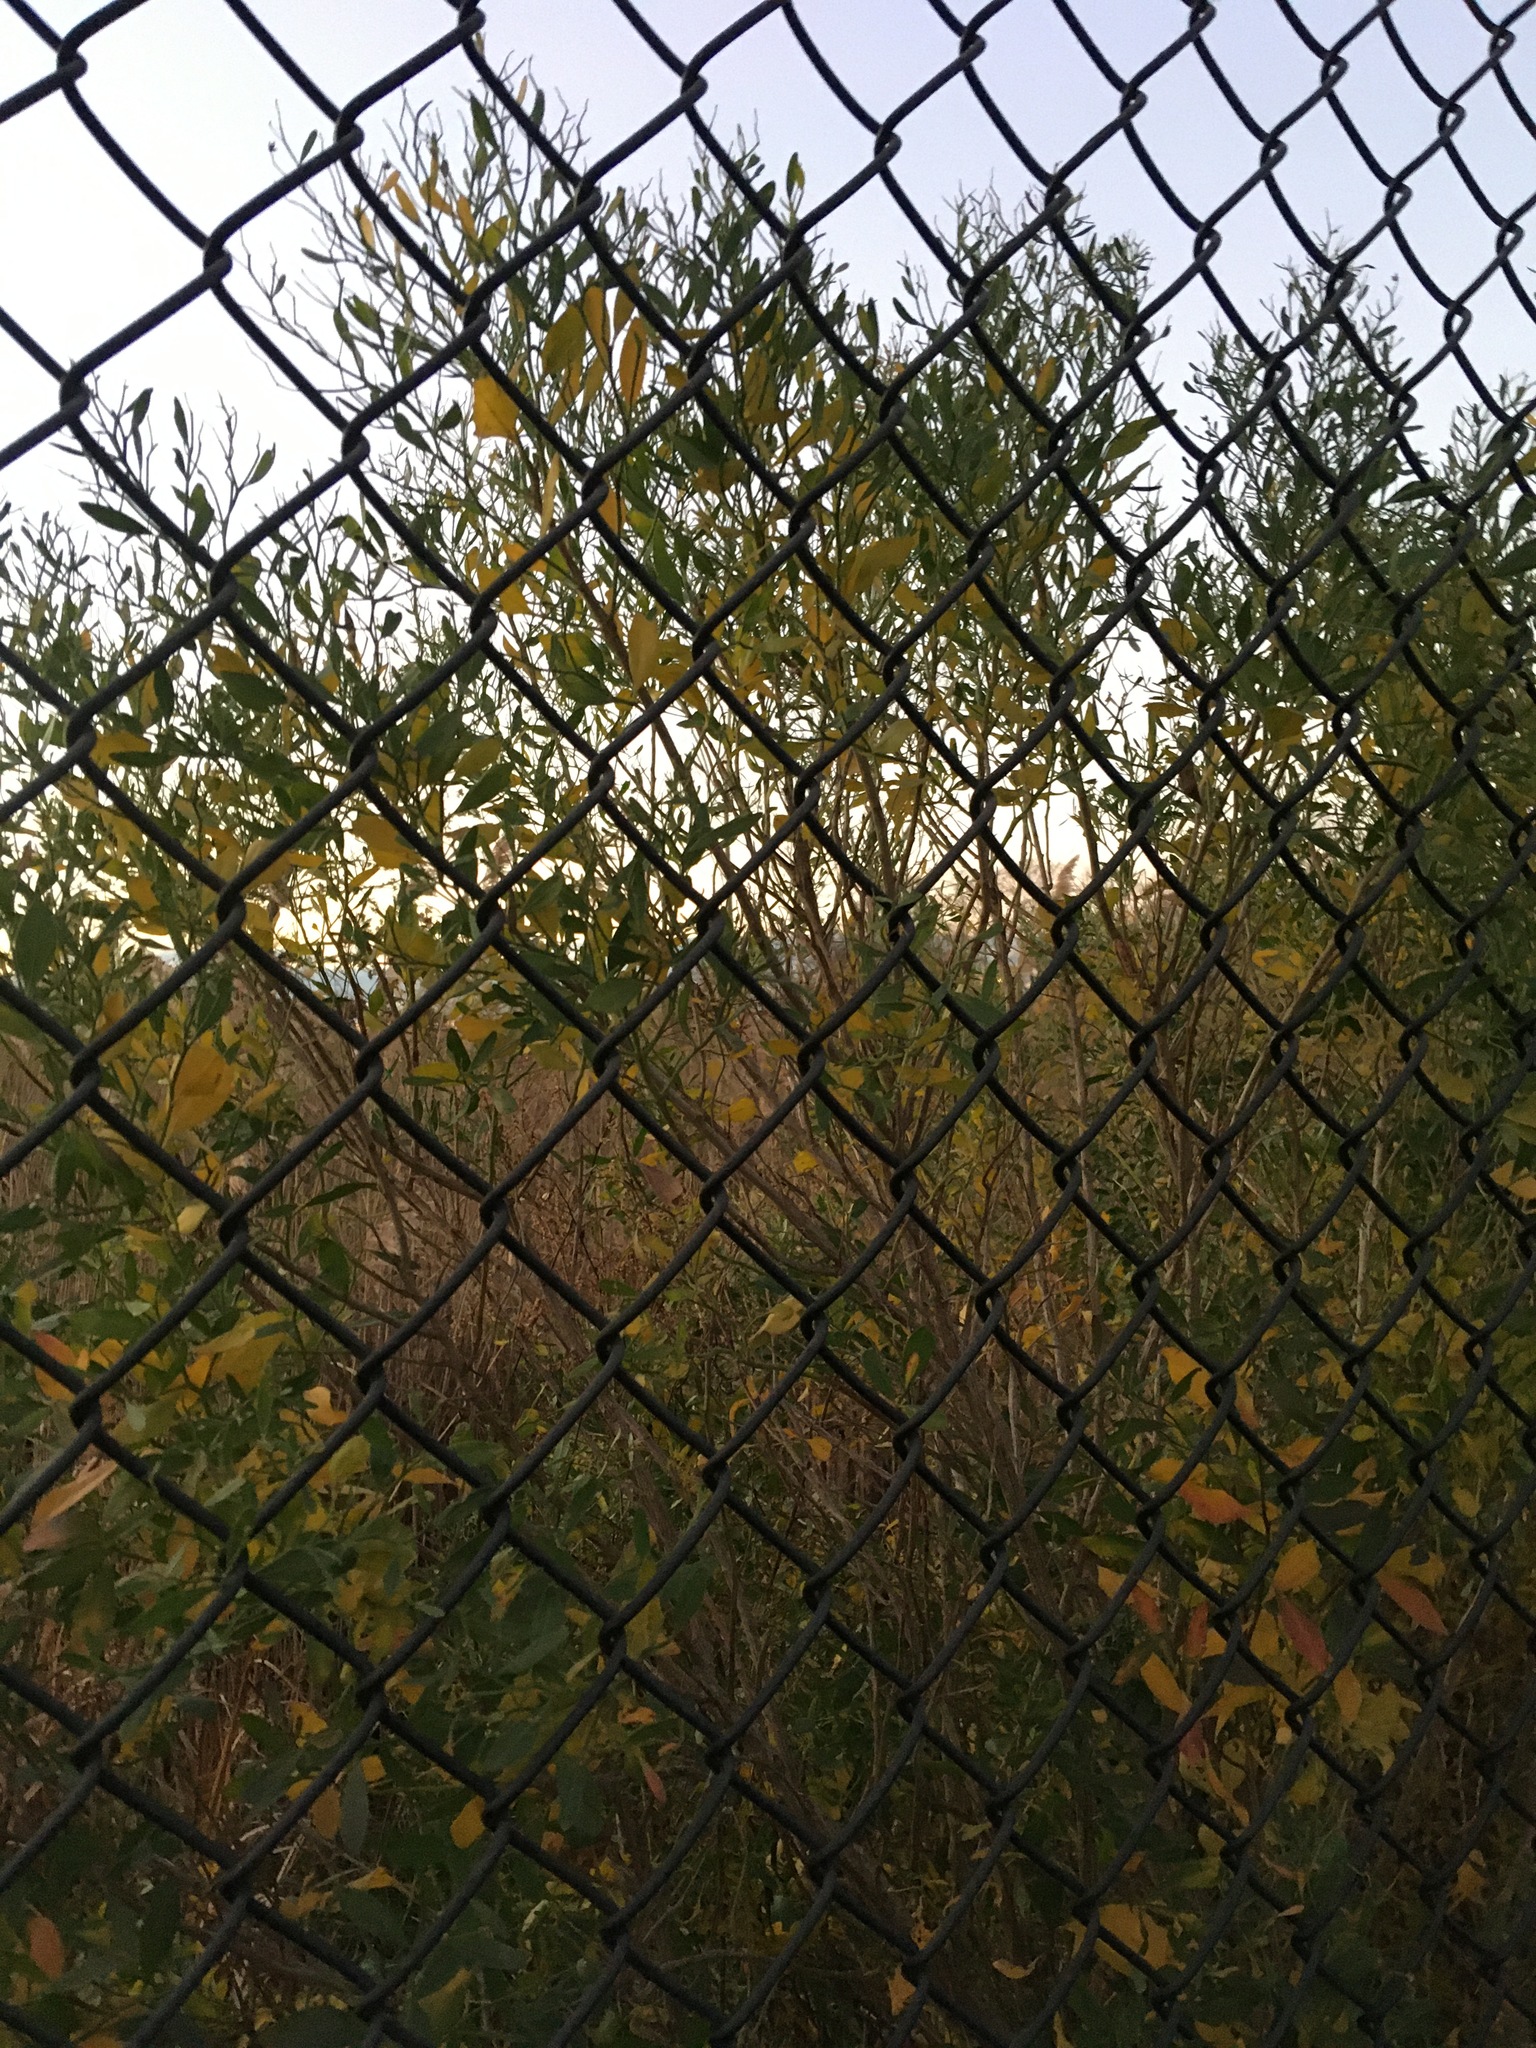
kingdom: Plantae
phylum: Tracheophyta
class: Magnoliopsida
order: Asterales
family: Asteraceae
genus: Baccharis
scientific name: Baccharis halimifolia
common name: Eastern baccharis
